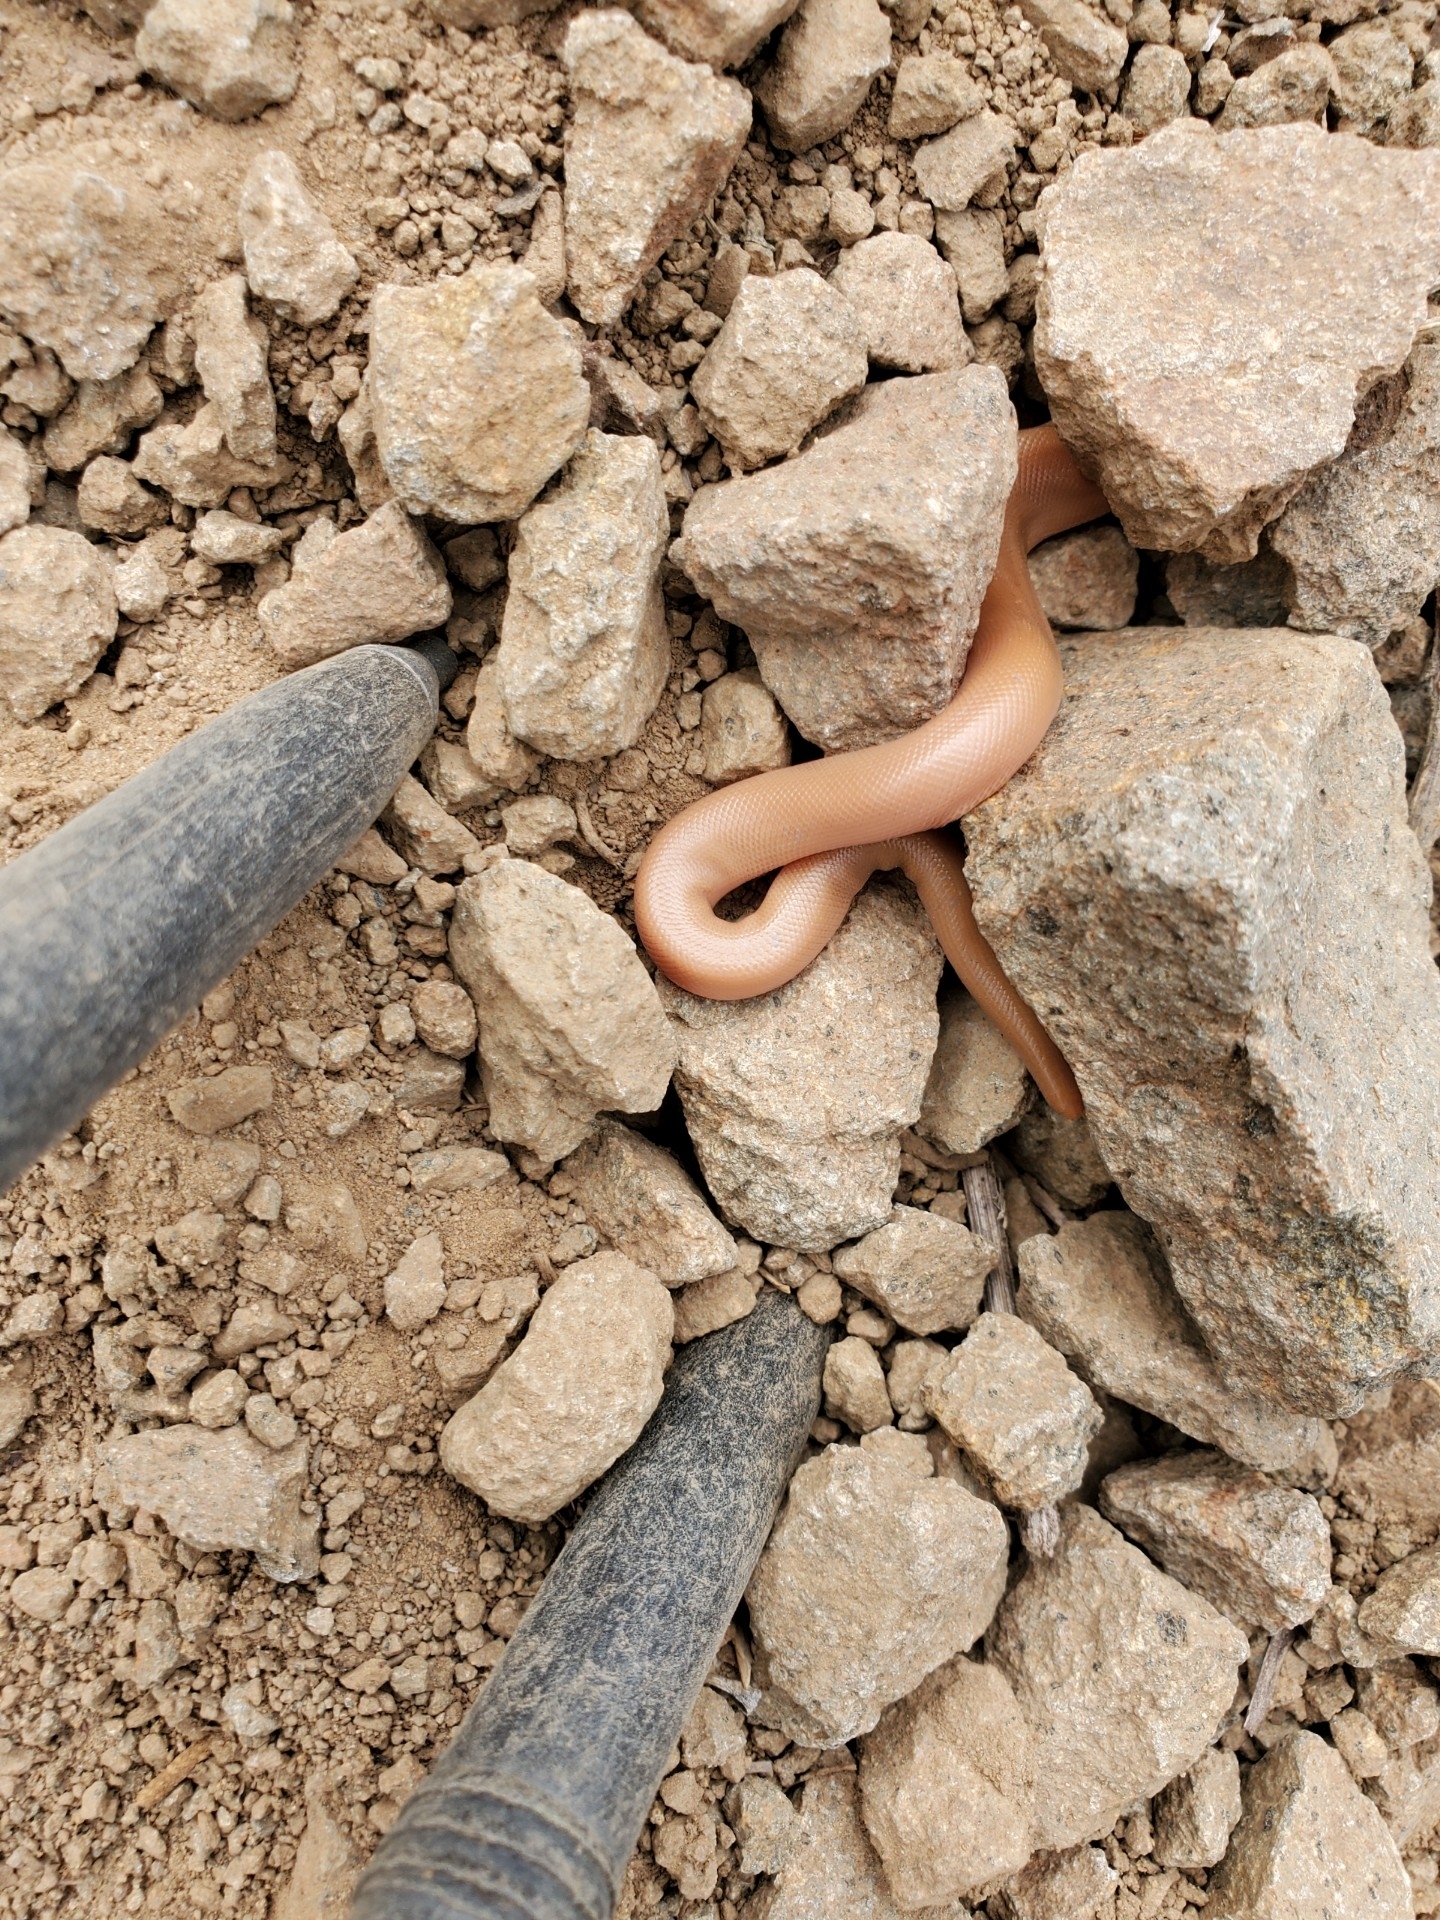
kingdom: Animalia
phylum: Chordata
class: Squamata
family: Boidae
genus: Charina
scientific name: Charina bottae
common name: Northern rubber boa
